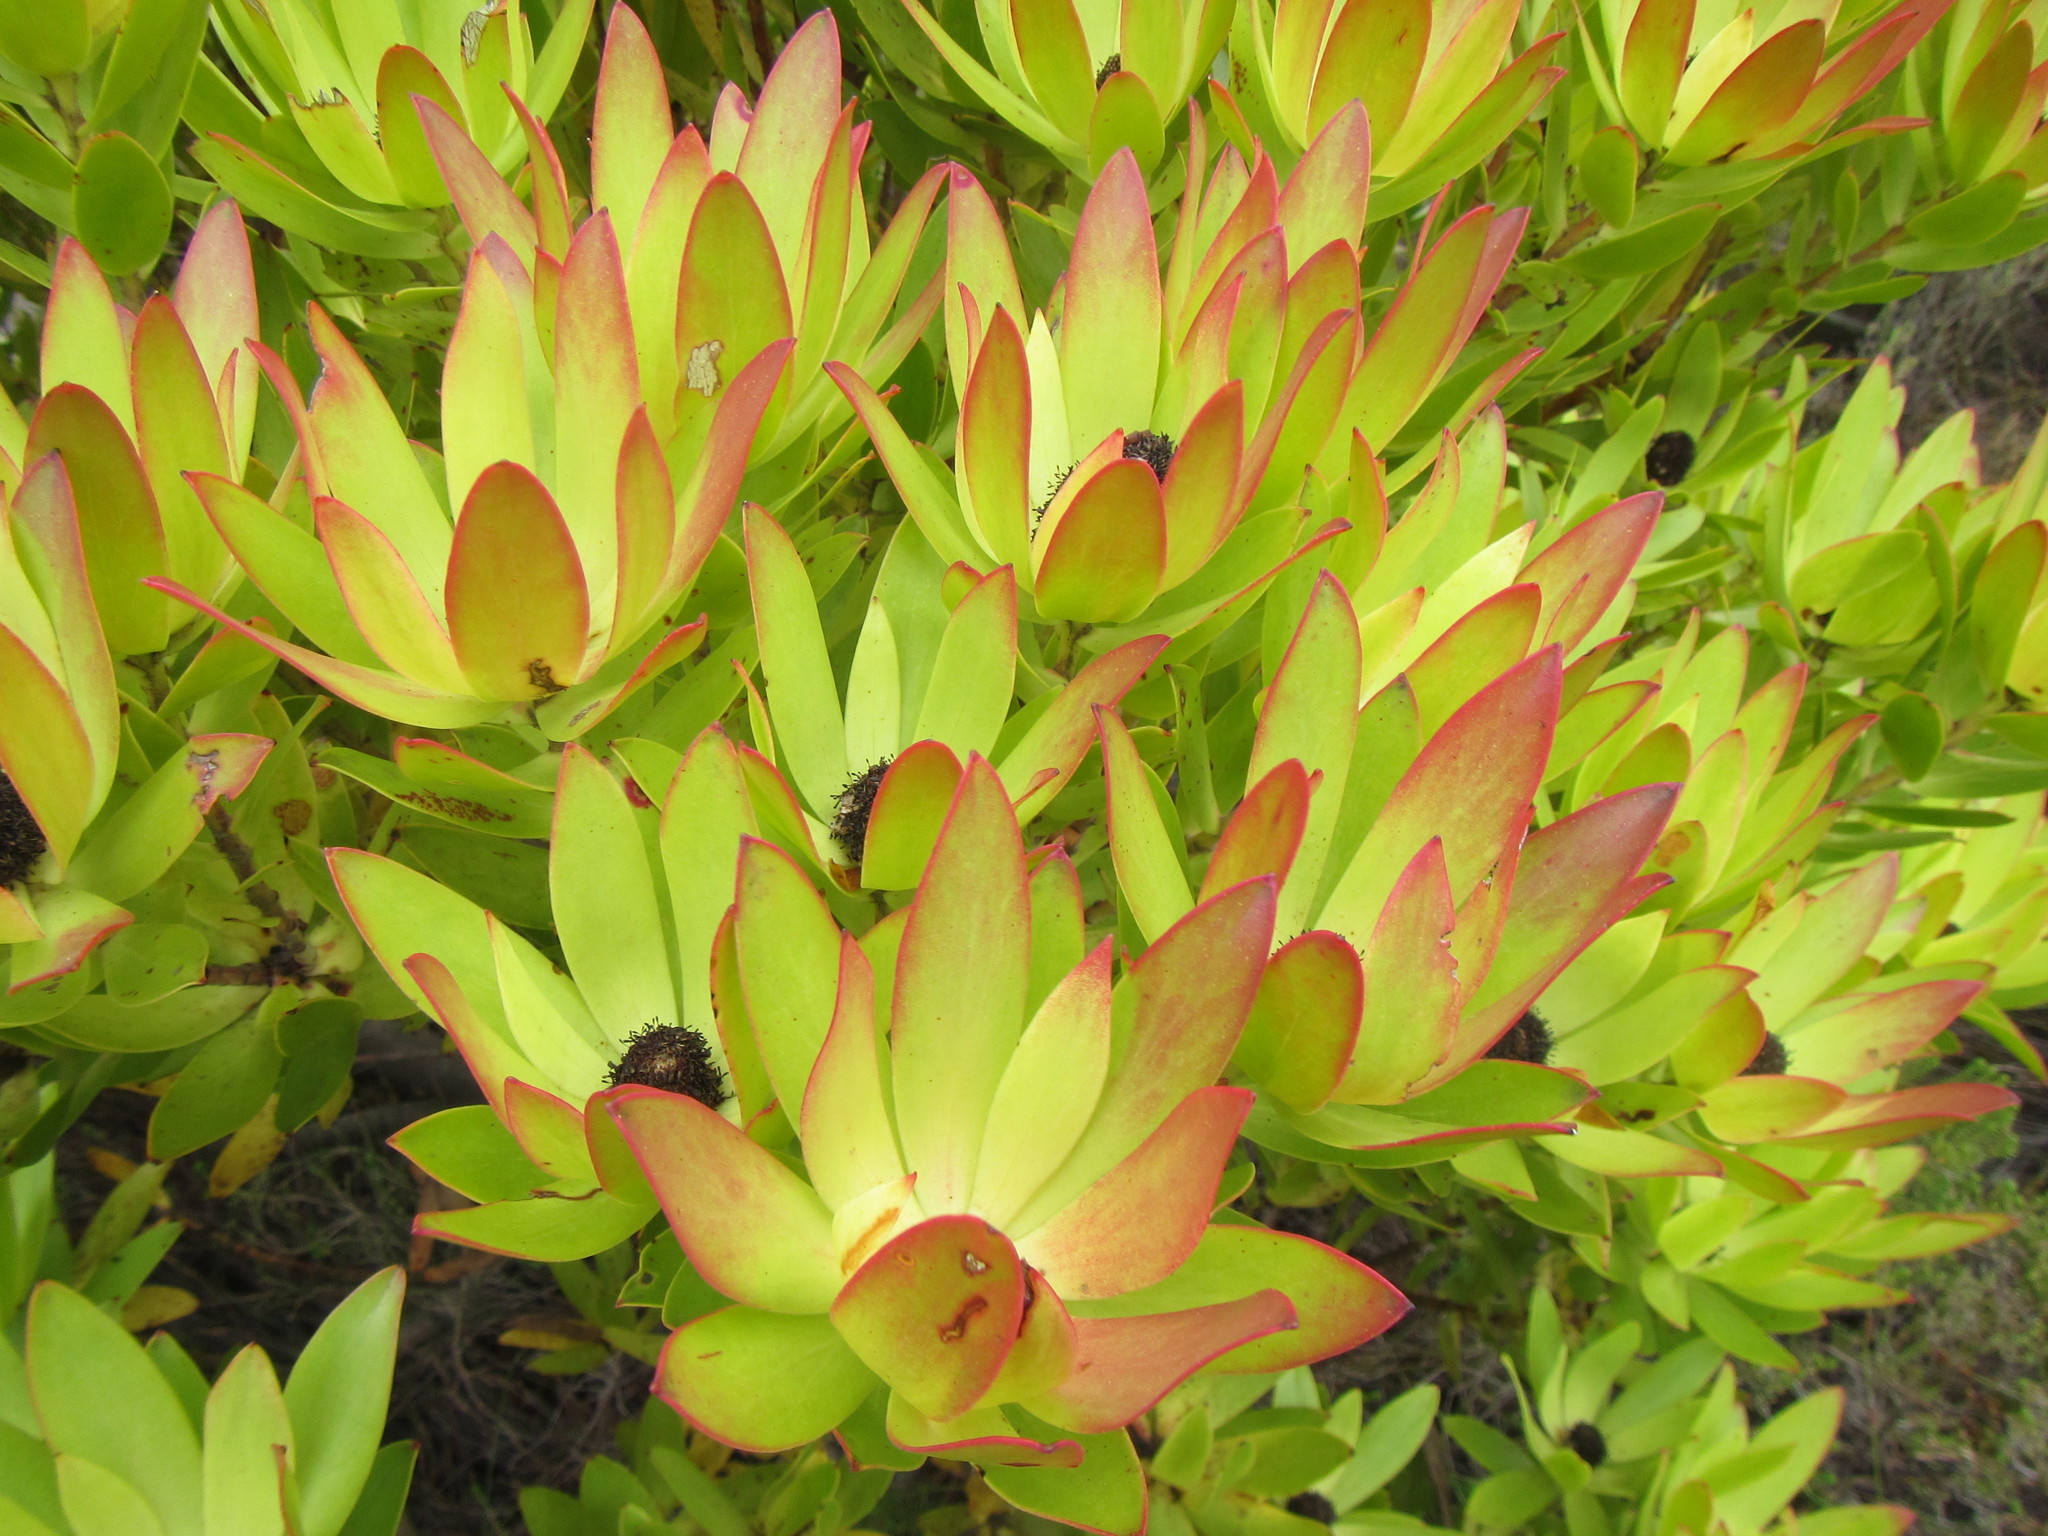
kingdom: Plantae
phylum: Tracheophyta
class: Magnoliopsida
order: Proteales
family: Proteaceae
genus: Leucadendron
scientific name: Leucadendron gandogeri
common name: Broad-leaf conebush
